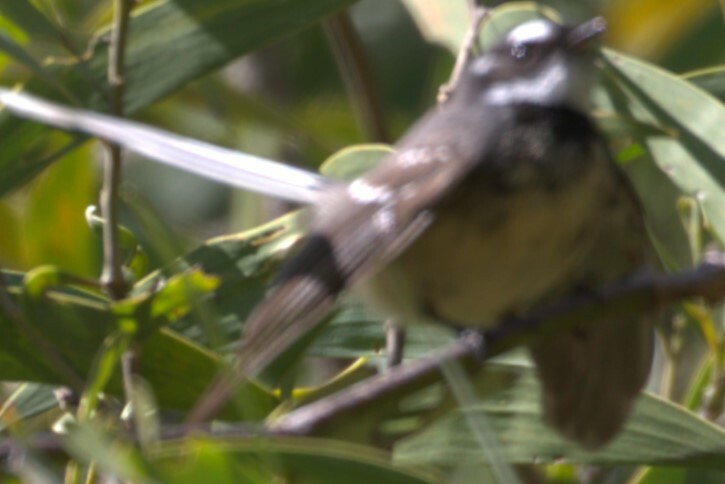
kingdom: Animalia
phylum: Chordata
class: Aves
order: Passeriformes
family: Rhipiduridae
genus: Rhipidura
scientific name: Rhipidura albiscapa
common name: Grey fantail
